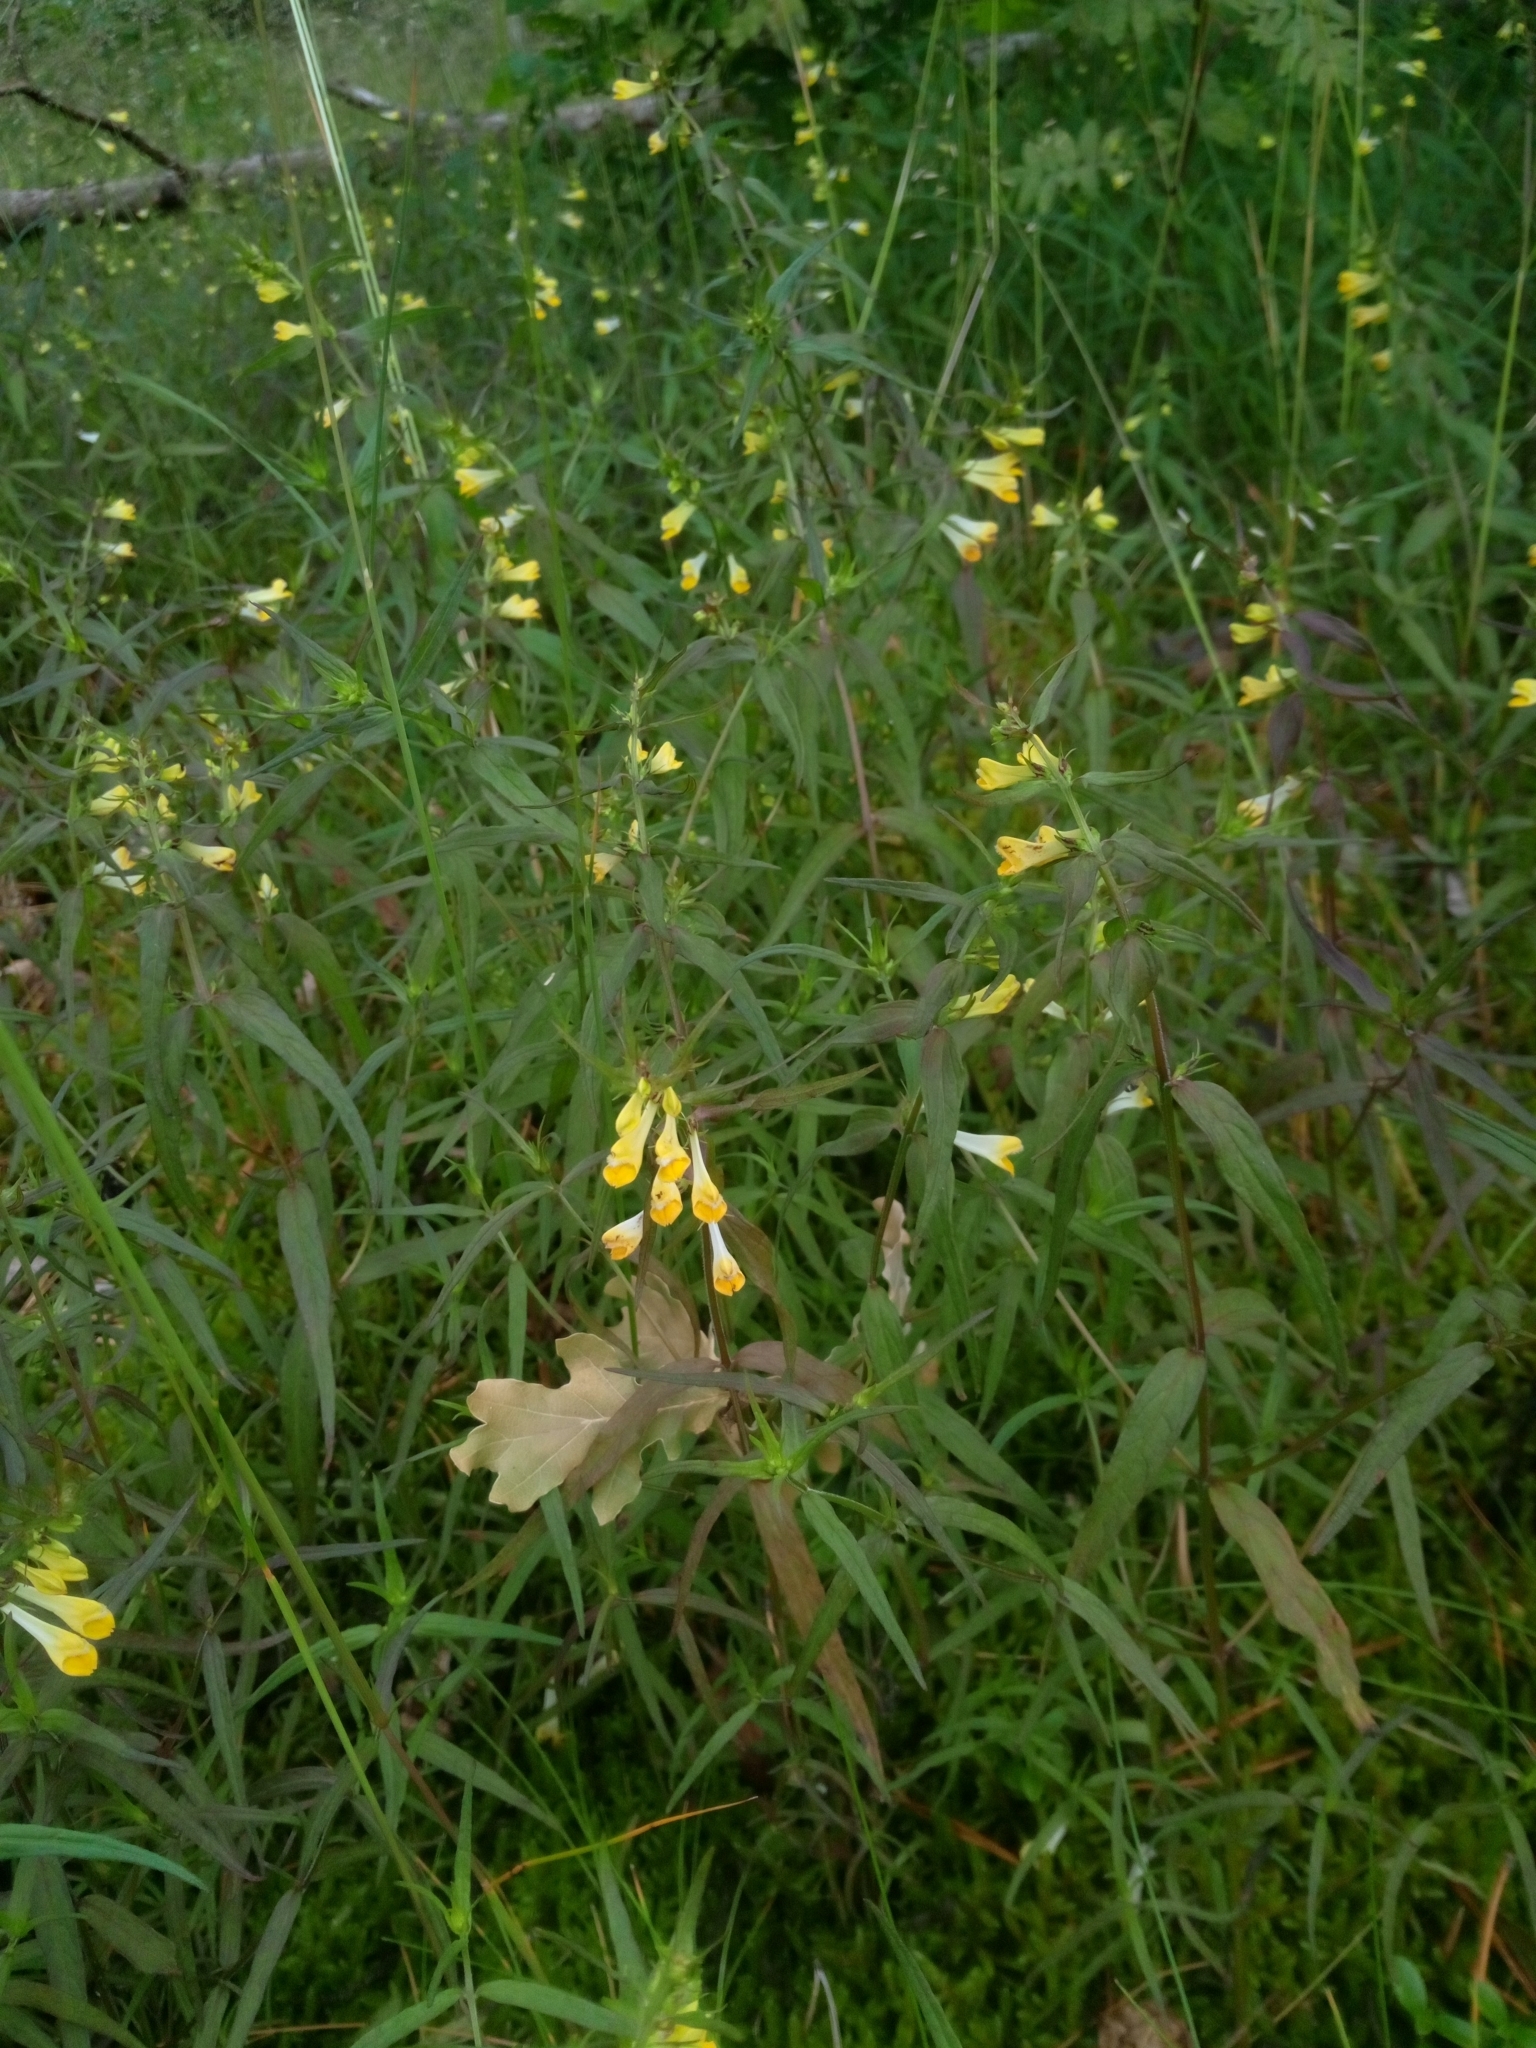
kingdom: Plantae
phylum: Tracheophyta
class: Magnoliopsida
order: Lamiales
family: Orobanchaceae
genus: Melampyrum
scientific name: Melampyrum pratense
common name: Common cow-wheat
